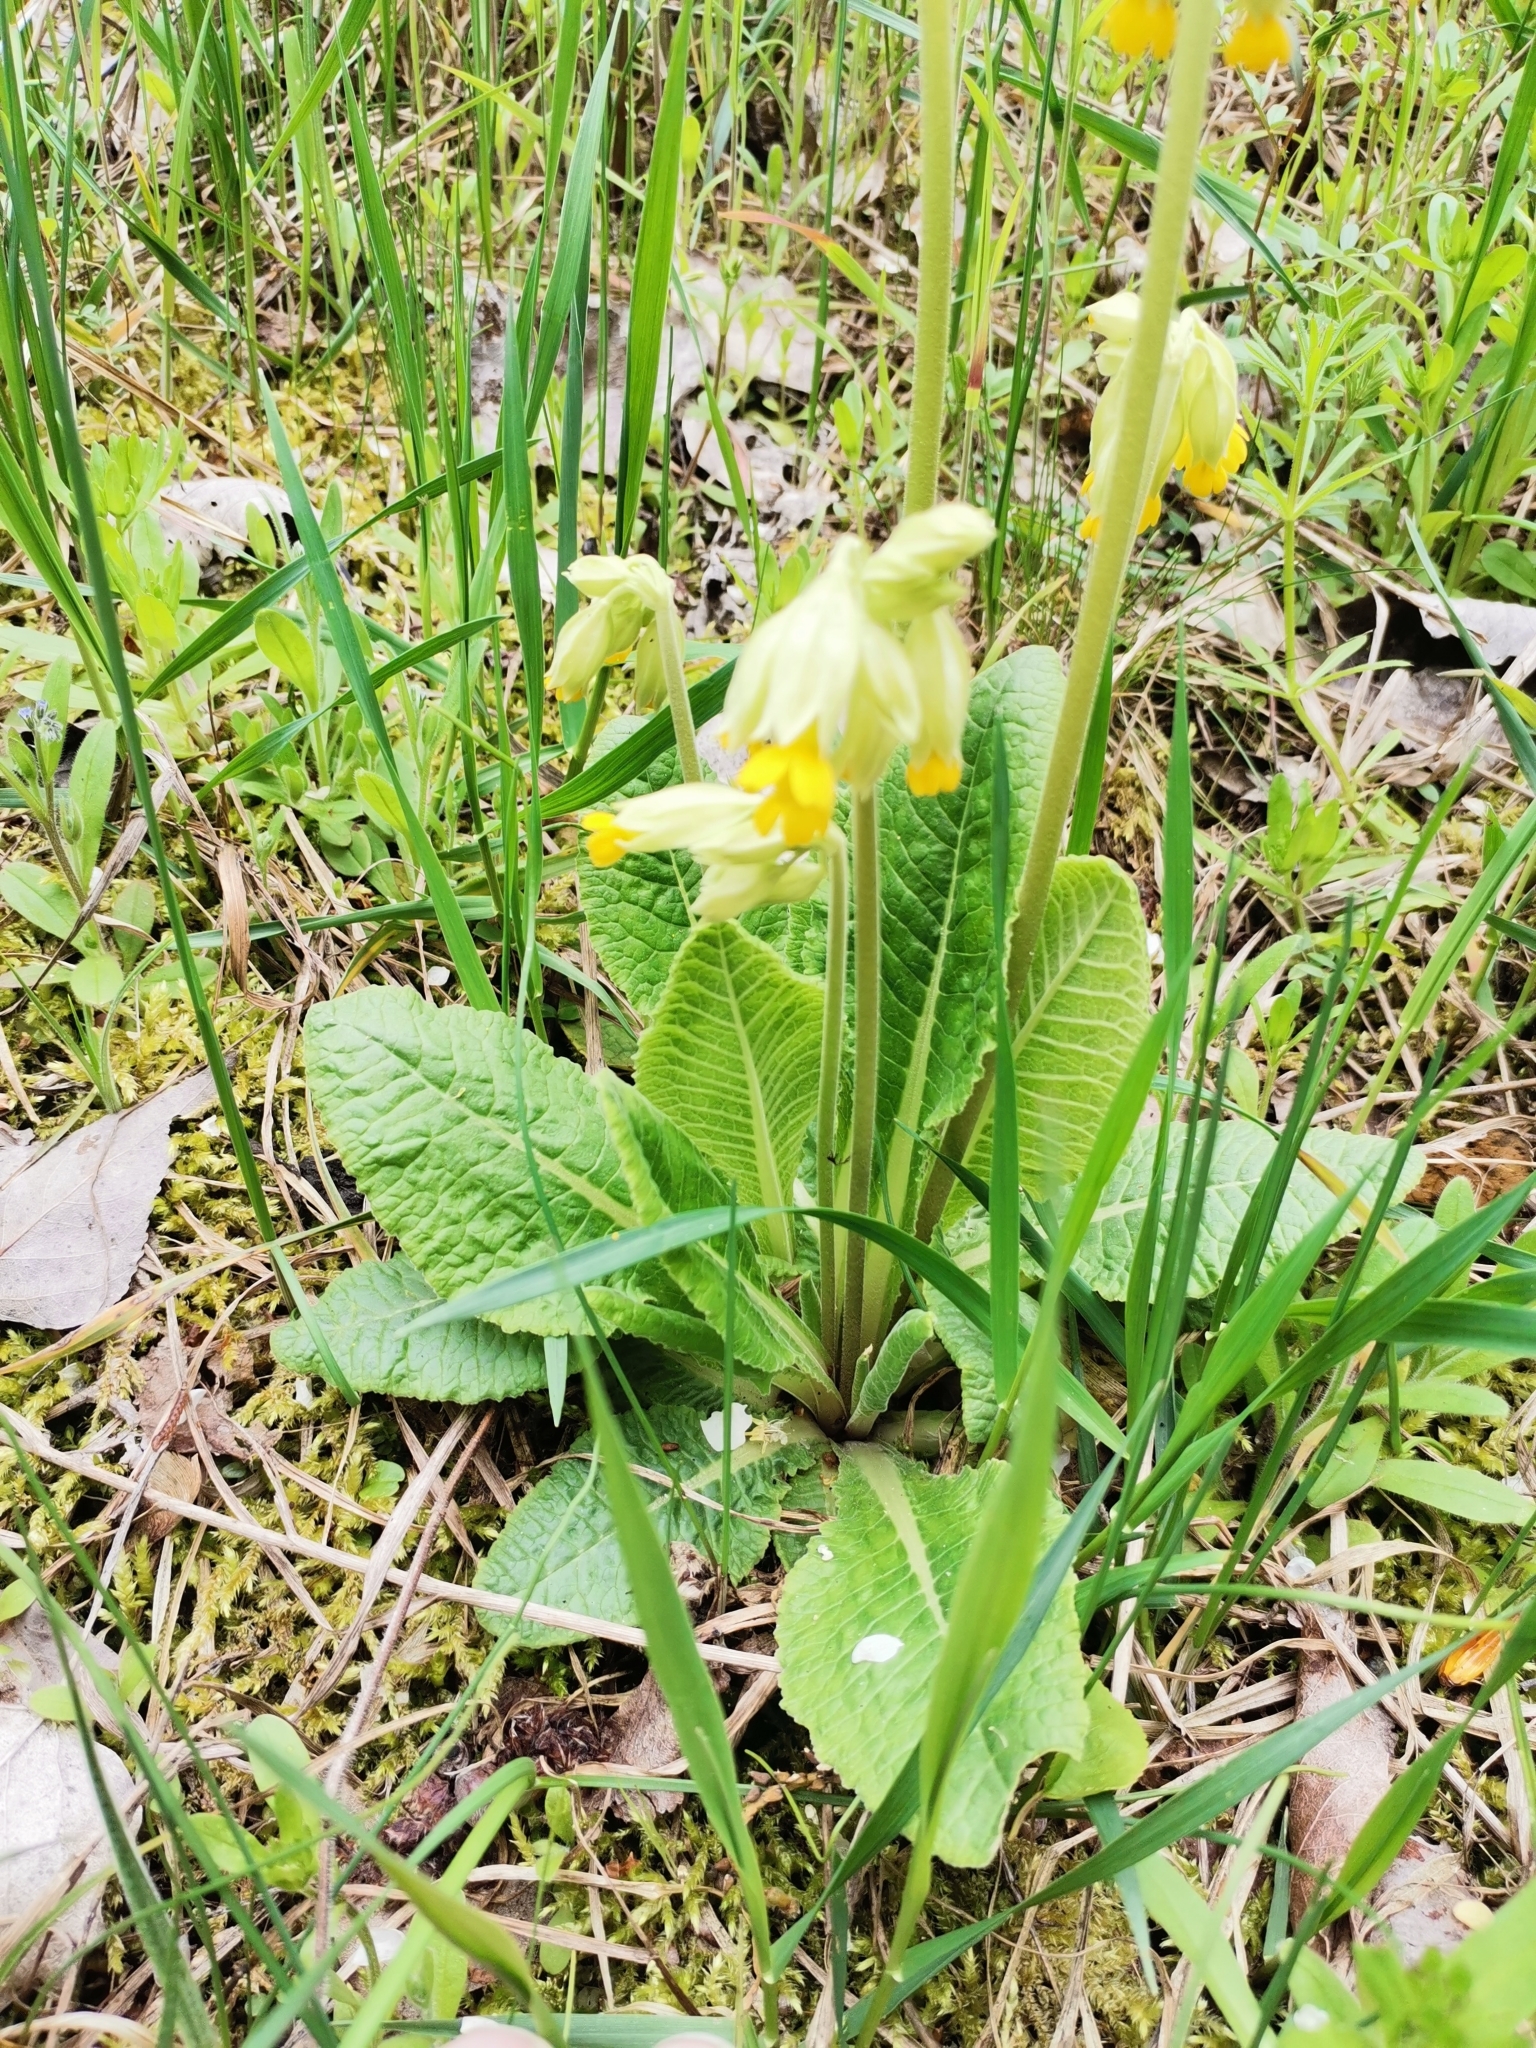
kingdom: Plantae
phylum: Tracheophyta
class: Magnoliopsida
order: Ericales
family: Primulaceae
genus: Primula
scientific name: Primula veris
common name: Cowslip
